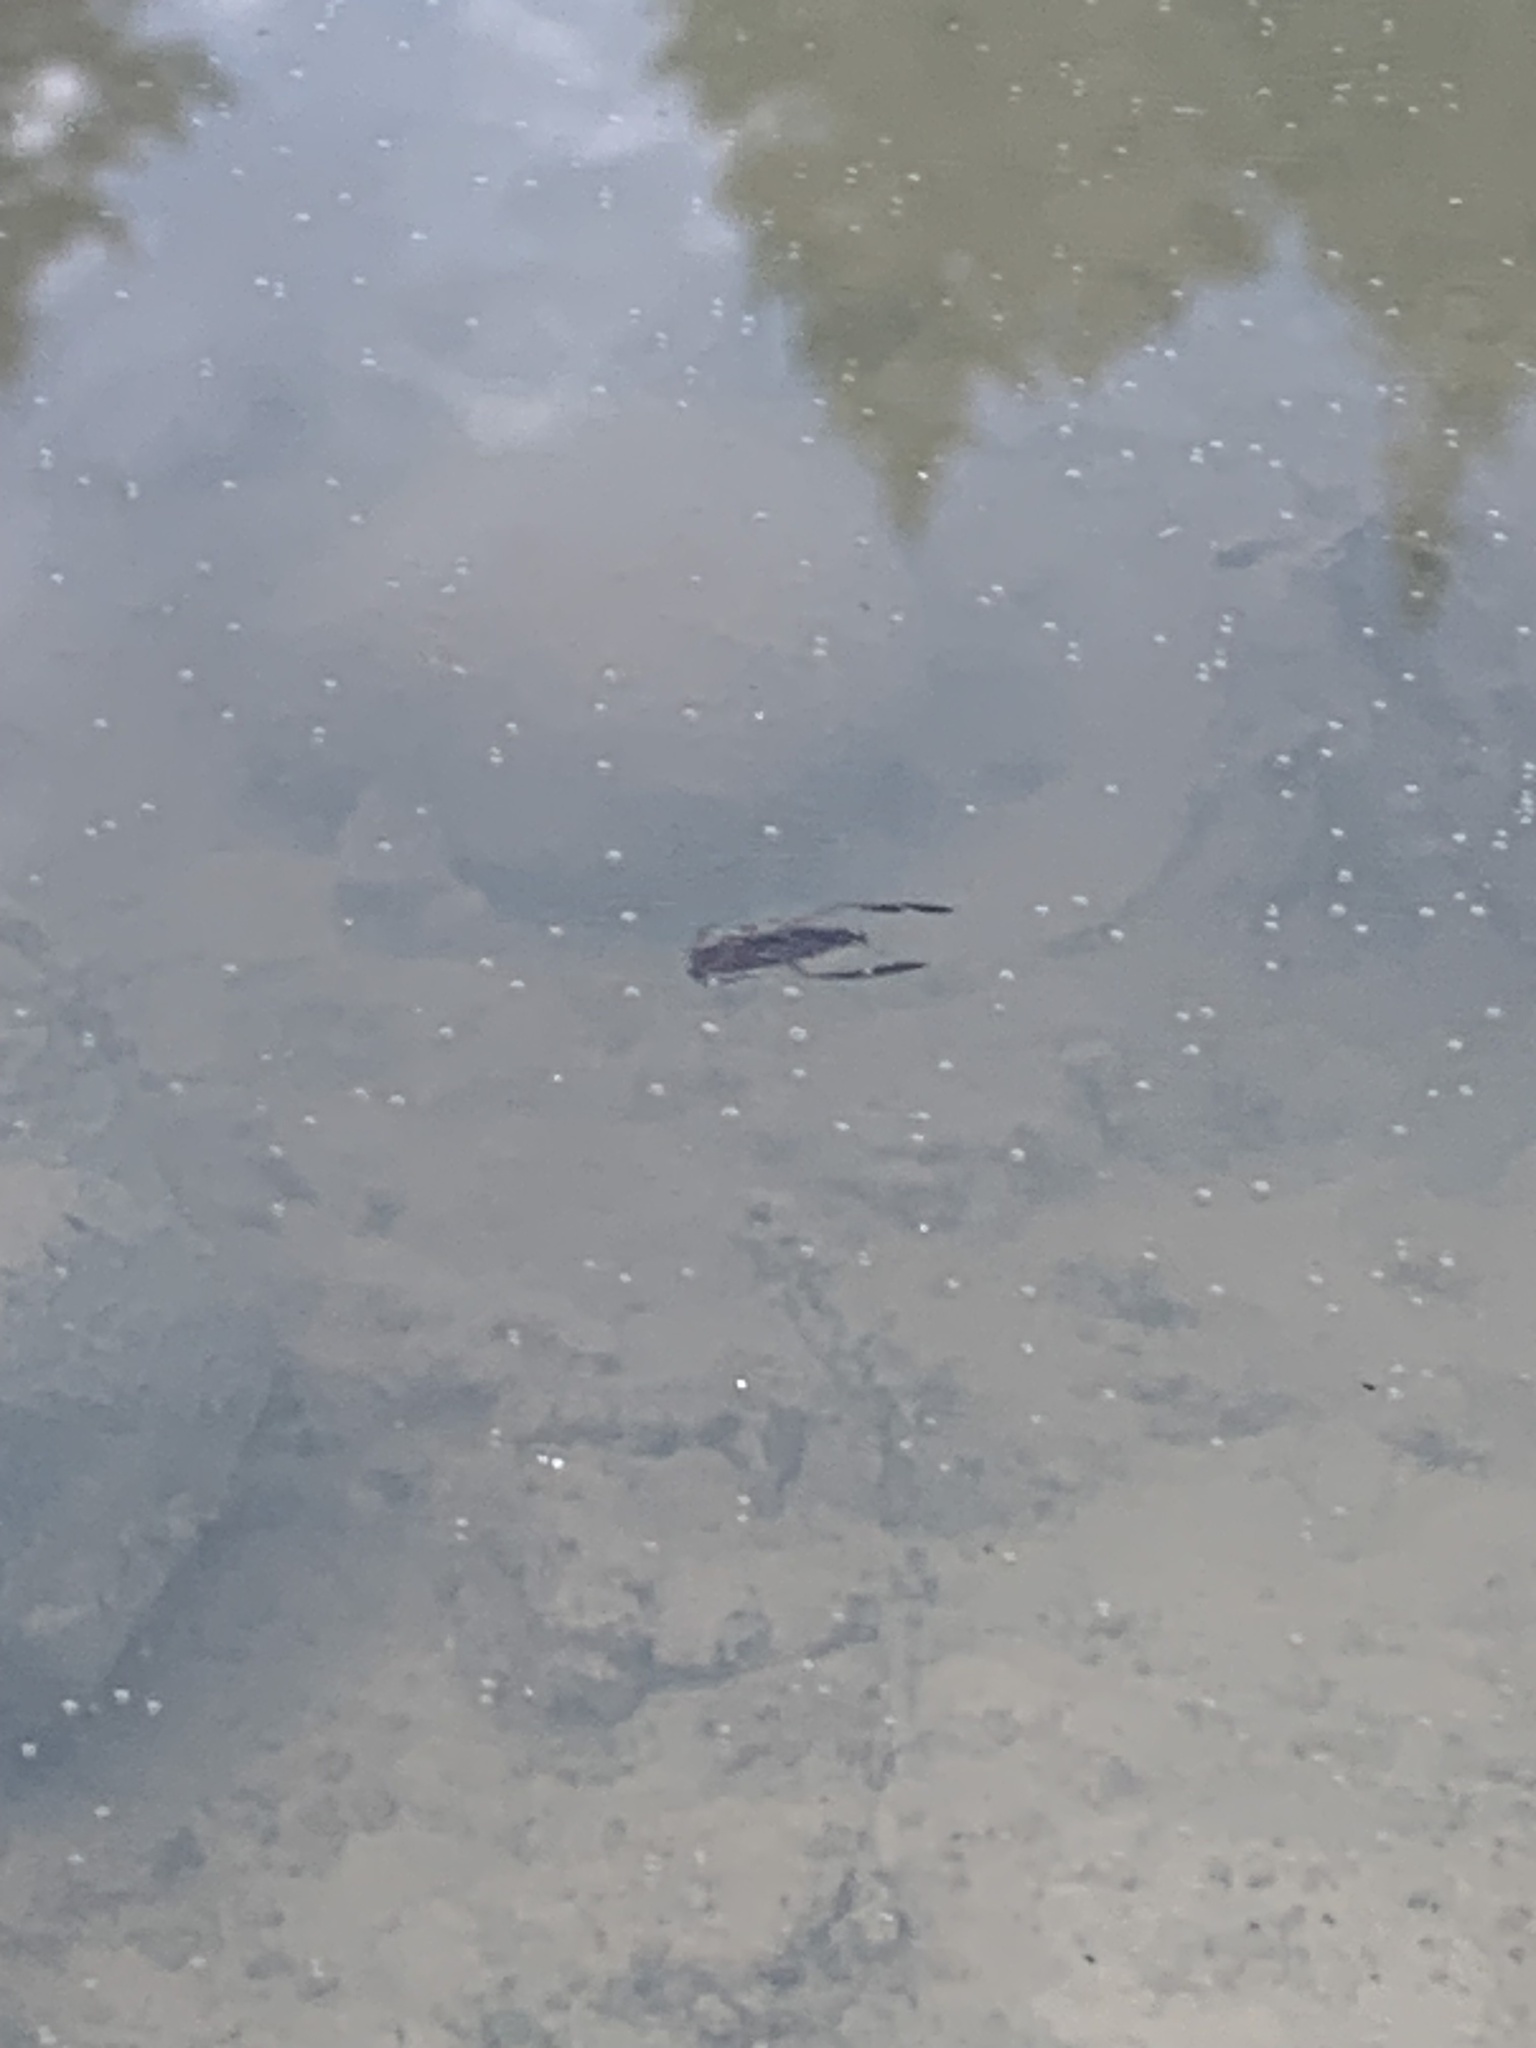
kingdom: Animalia
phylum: Arthropoda
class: Insecta
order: Hemiptera
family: Notonectidae
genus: Notonecta
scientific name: Notonecta
